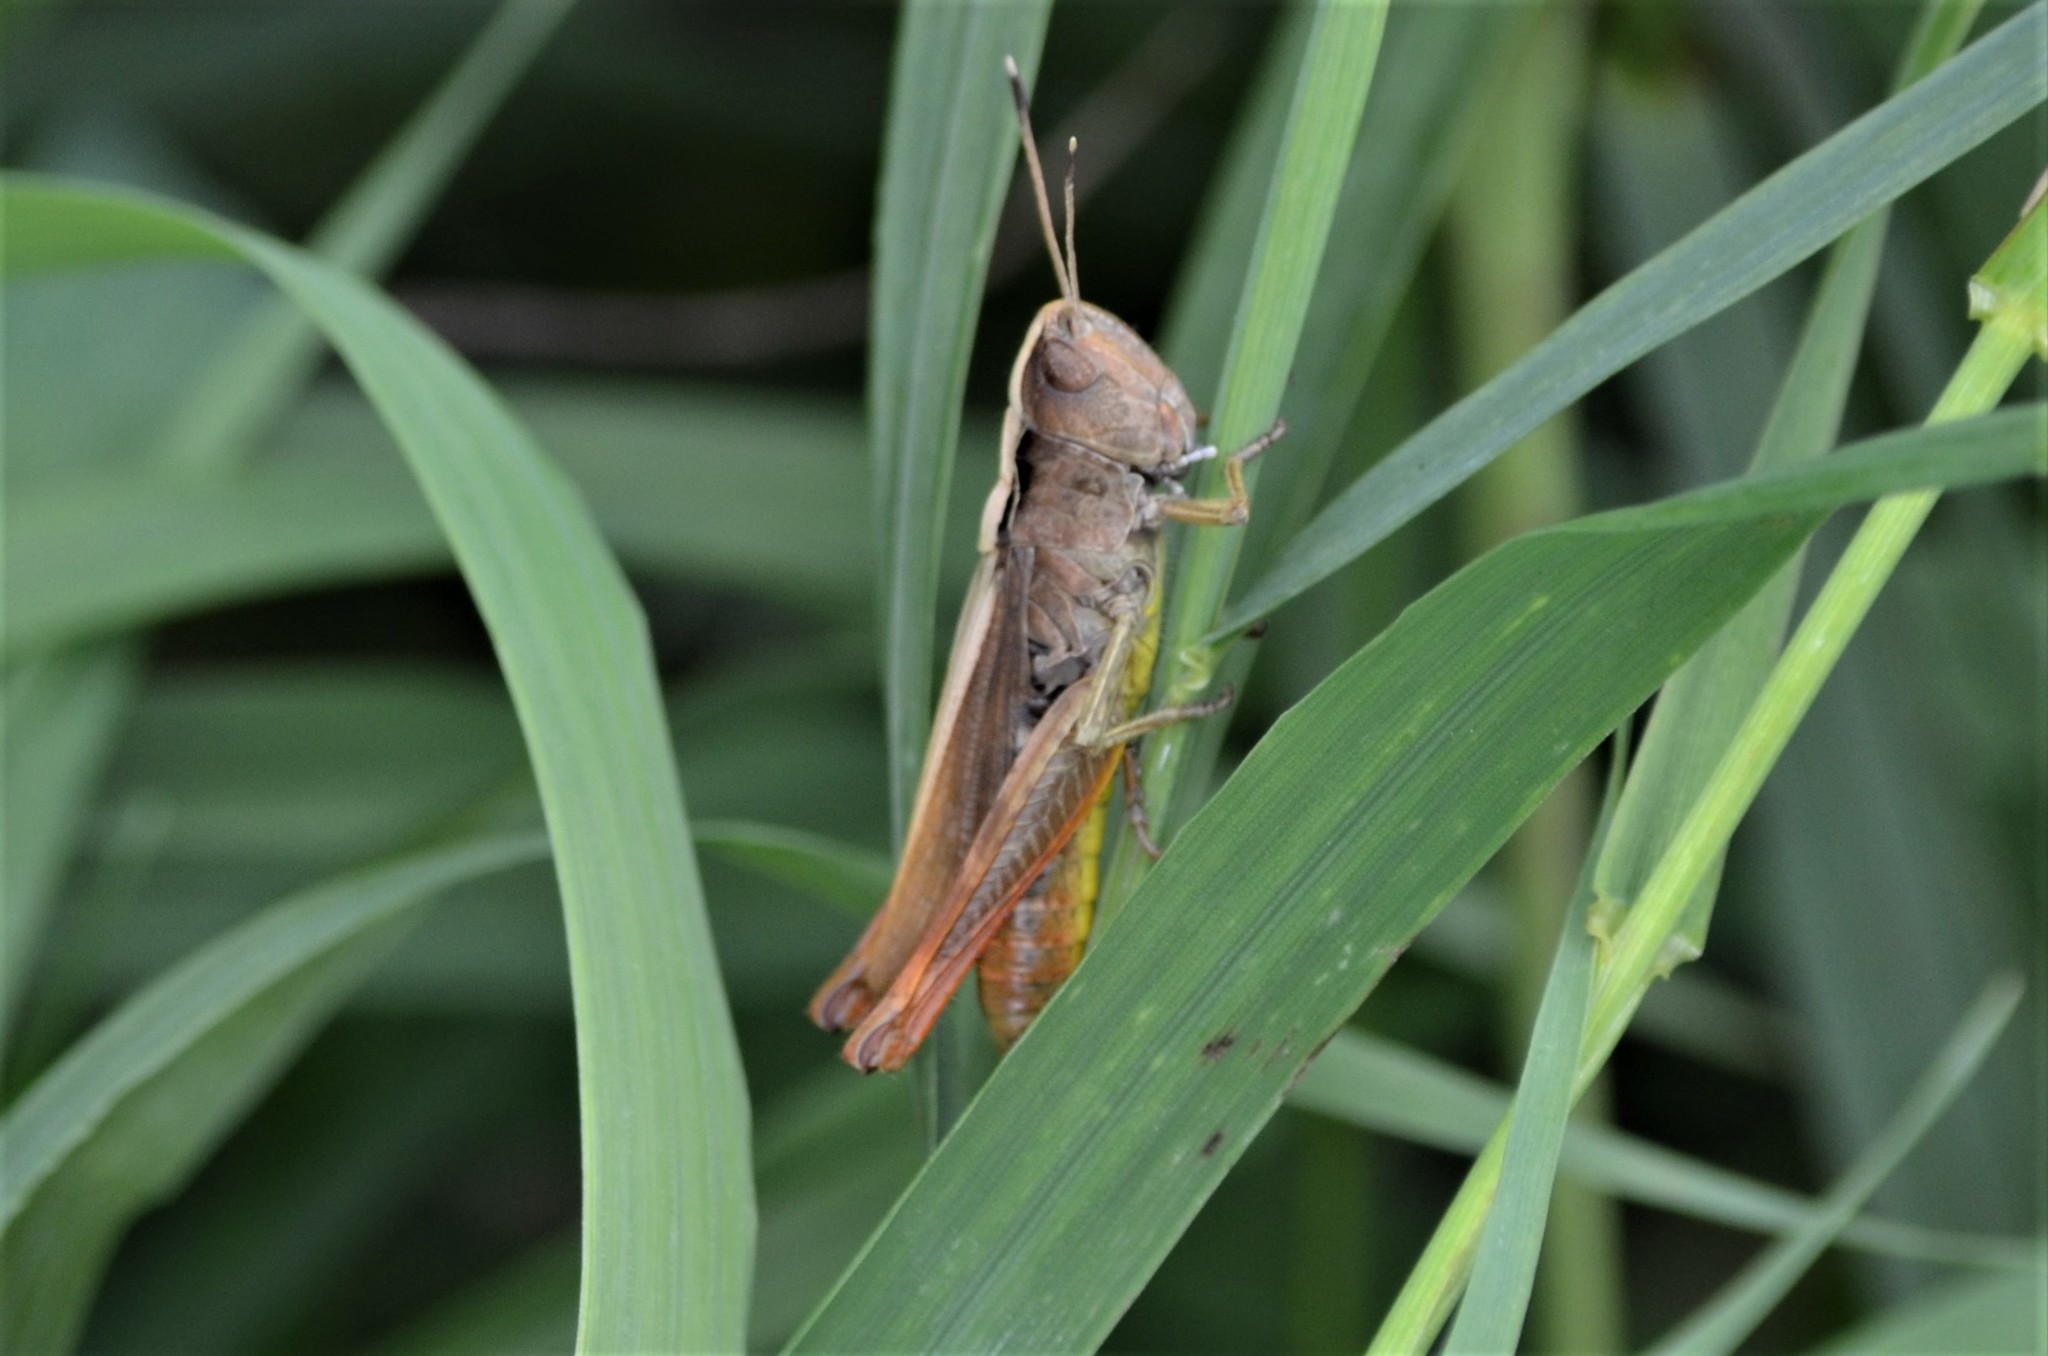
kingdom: Animalia
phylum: Arthropoda
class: Insecta
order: Orthoptera
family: Acrididae
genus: Gomphocerippus
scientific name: Gomphocerippus rufus
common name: Rufous grasshopper
